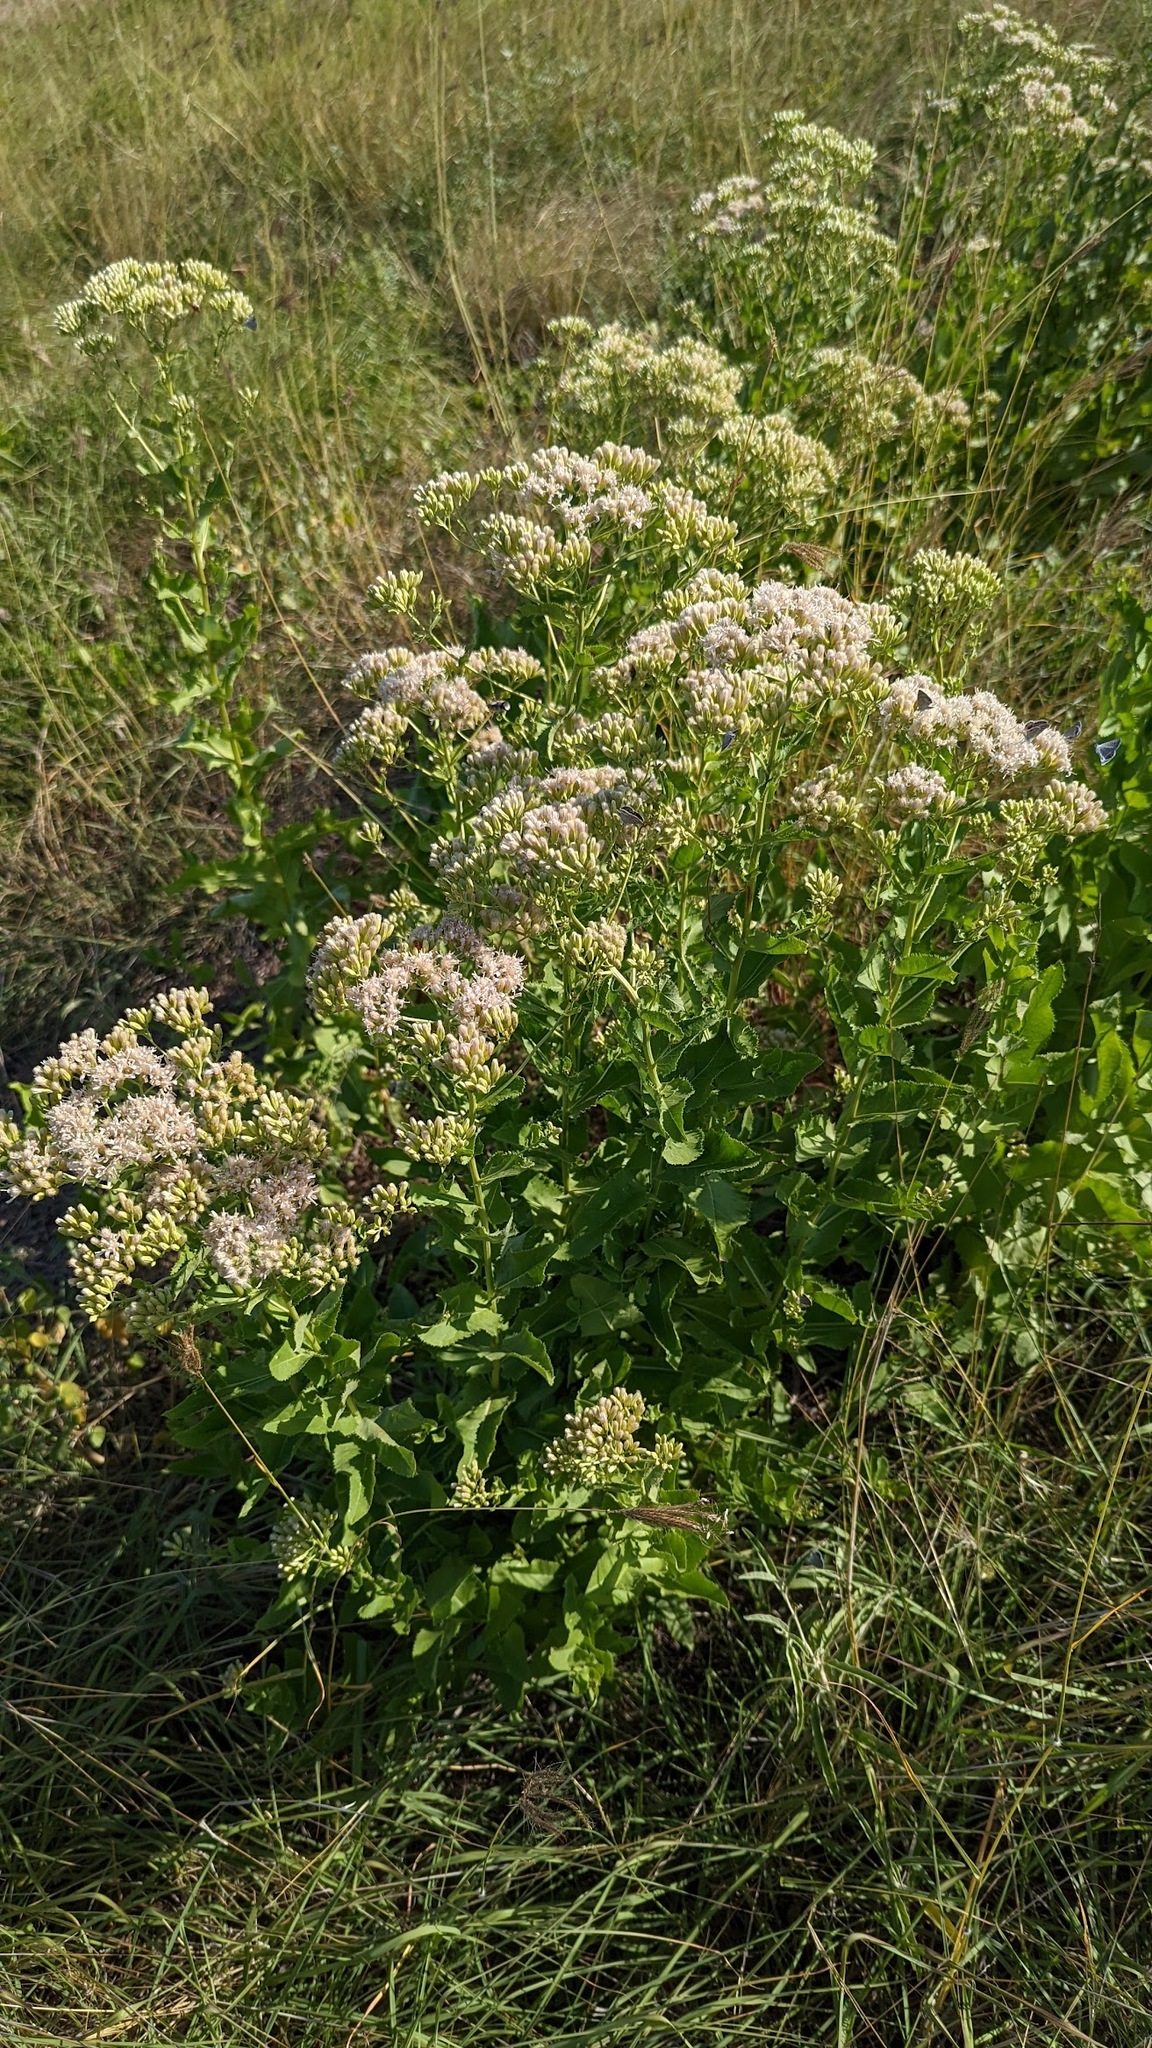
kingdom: Plantae
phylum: Tracheophyta
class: Magnoliopsida
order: Asterales
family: Asteraceae
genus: Acourtia
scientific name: Acourtia wrightii
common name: Brownfoot
